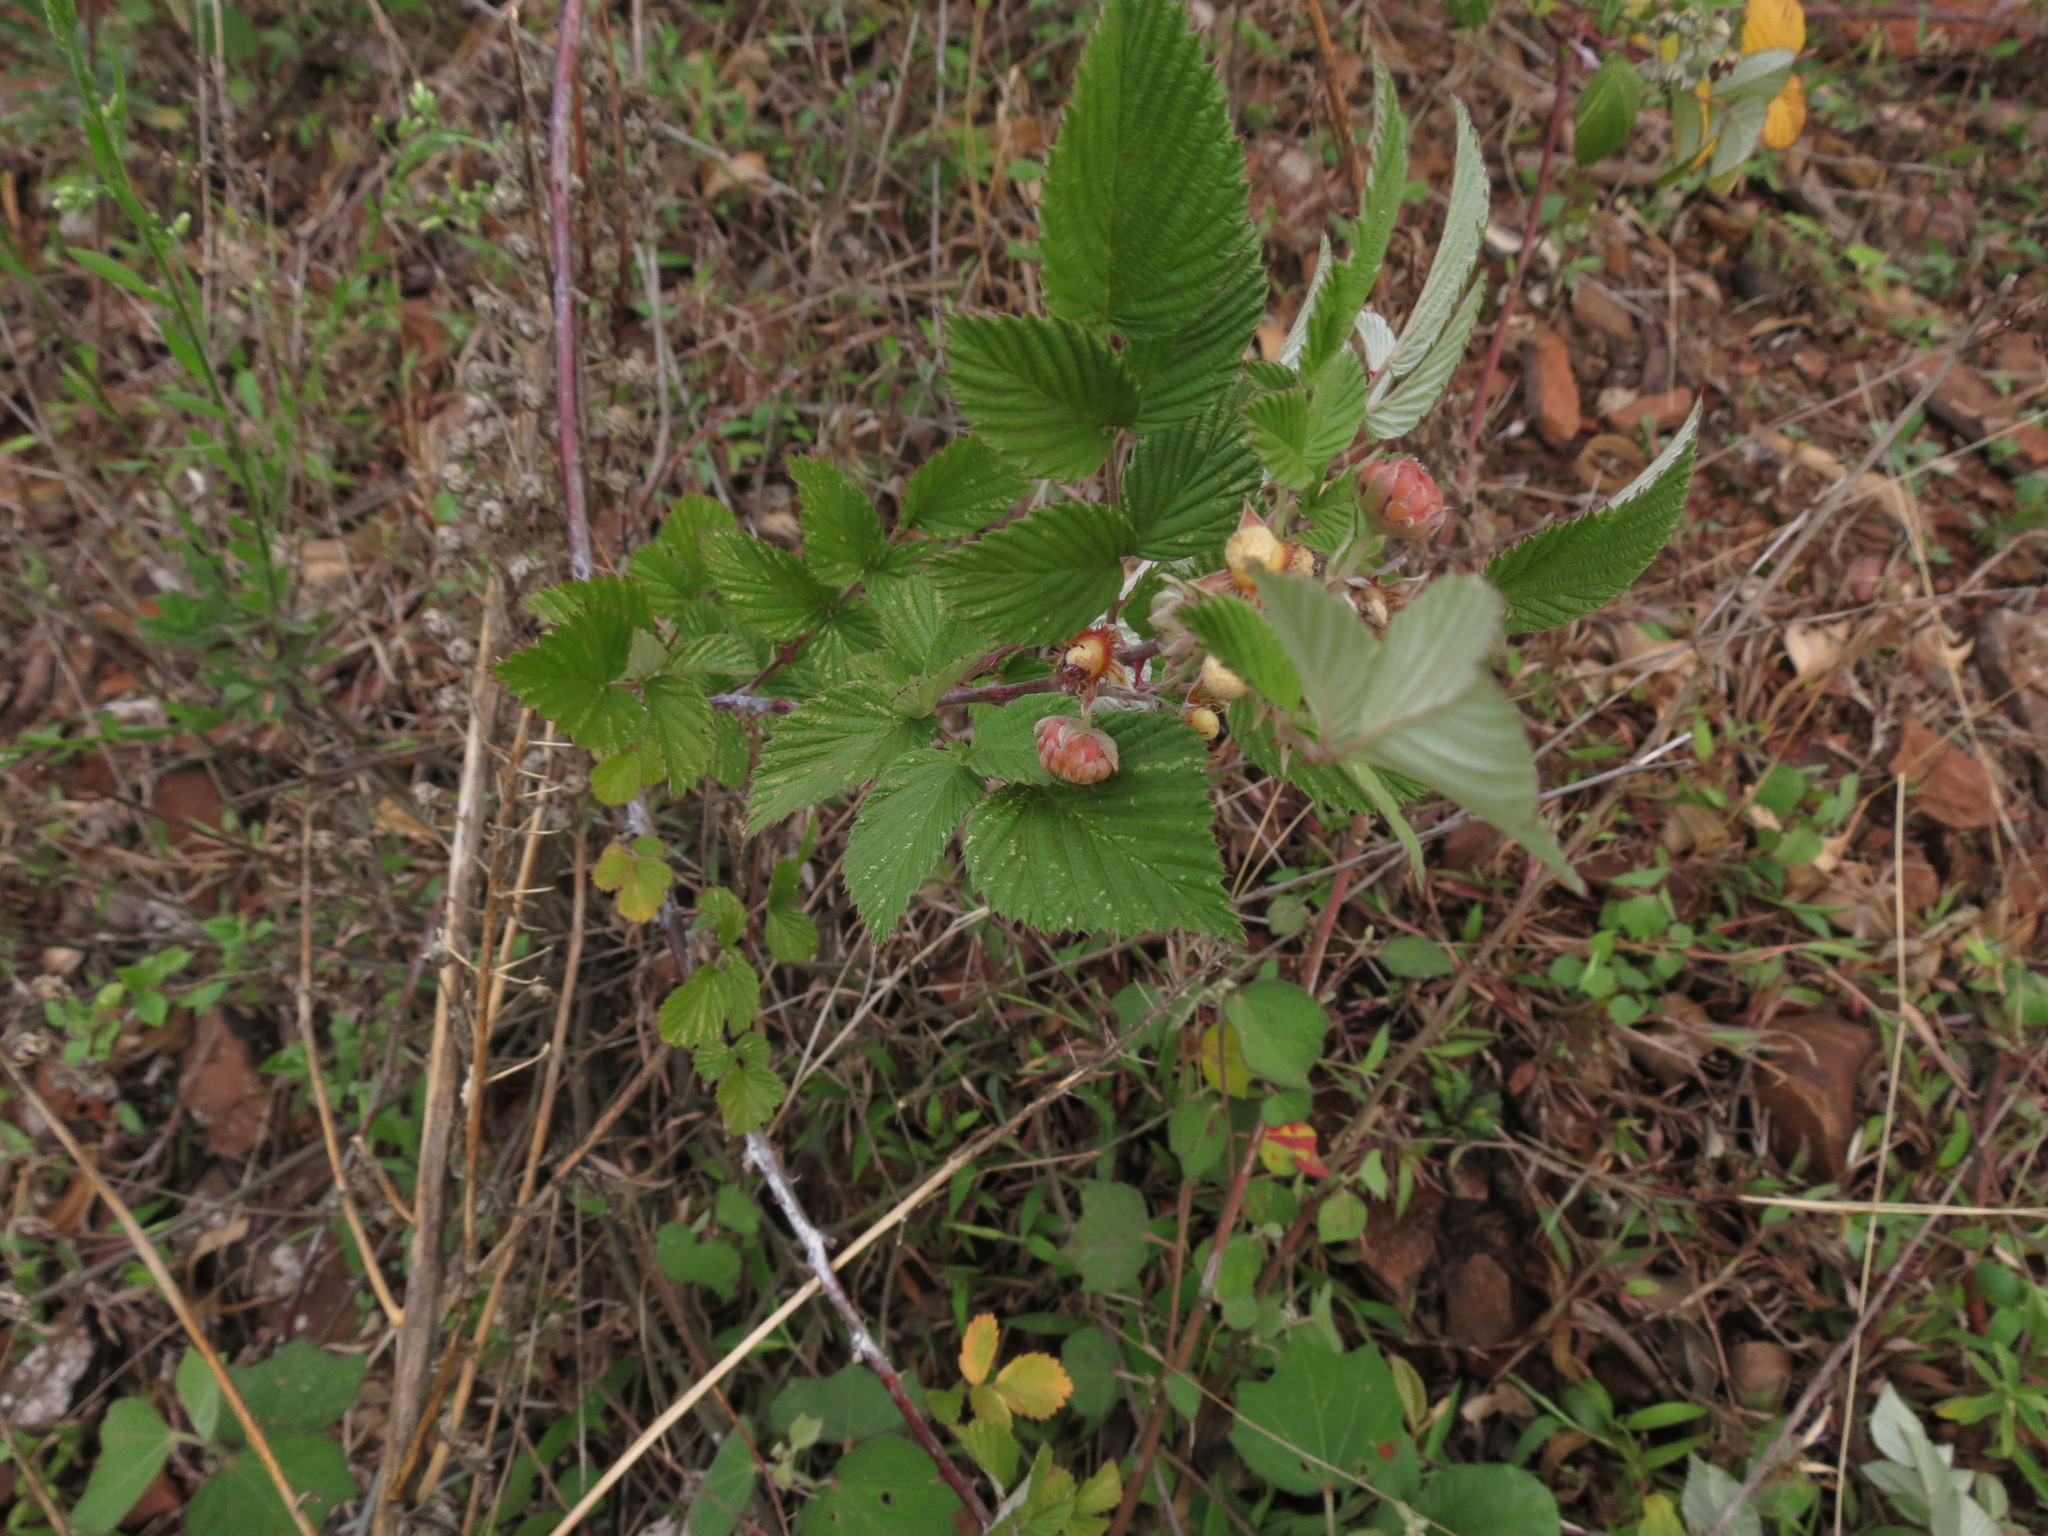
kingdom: Plantae
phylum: Tracheophyta
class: Magnoliopsida
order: Rosales
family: Rosaceae
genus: Rubus
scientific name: Rubus niveus
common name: Snowpeaks raspberry
